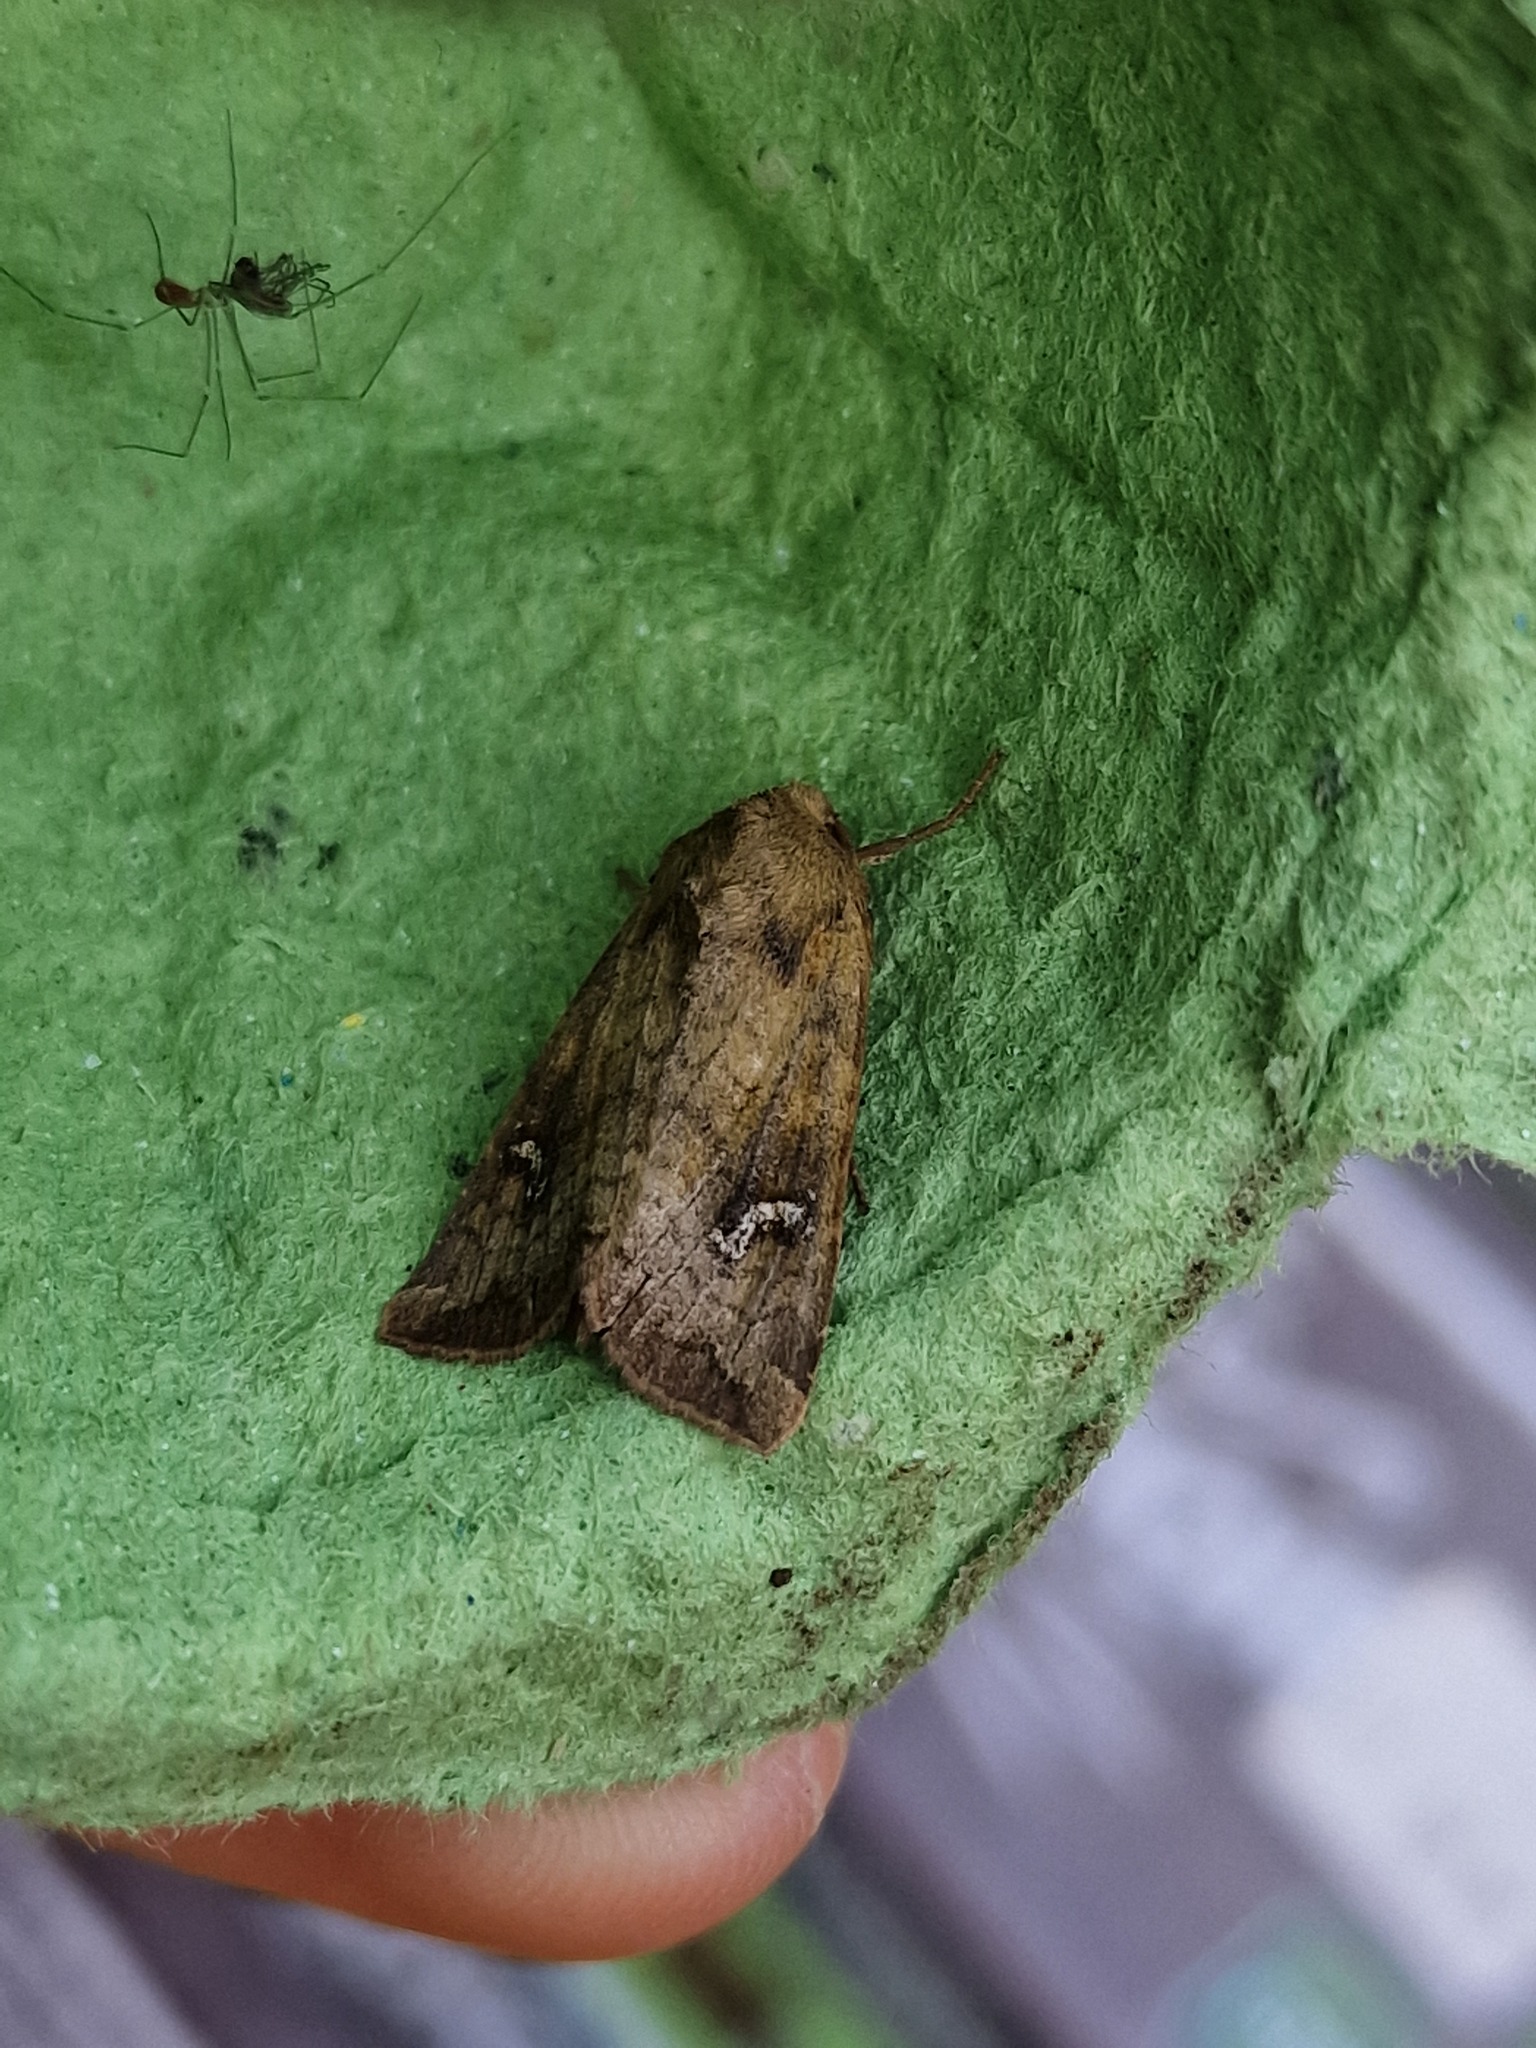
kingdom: Animalia
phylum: Arthropoda
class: Insecta
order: Lepidoptera
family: Noctuidae
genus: Amphipoea
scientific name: Amphipoea
